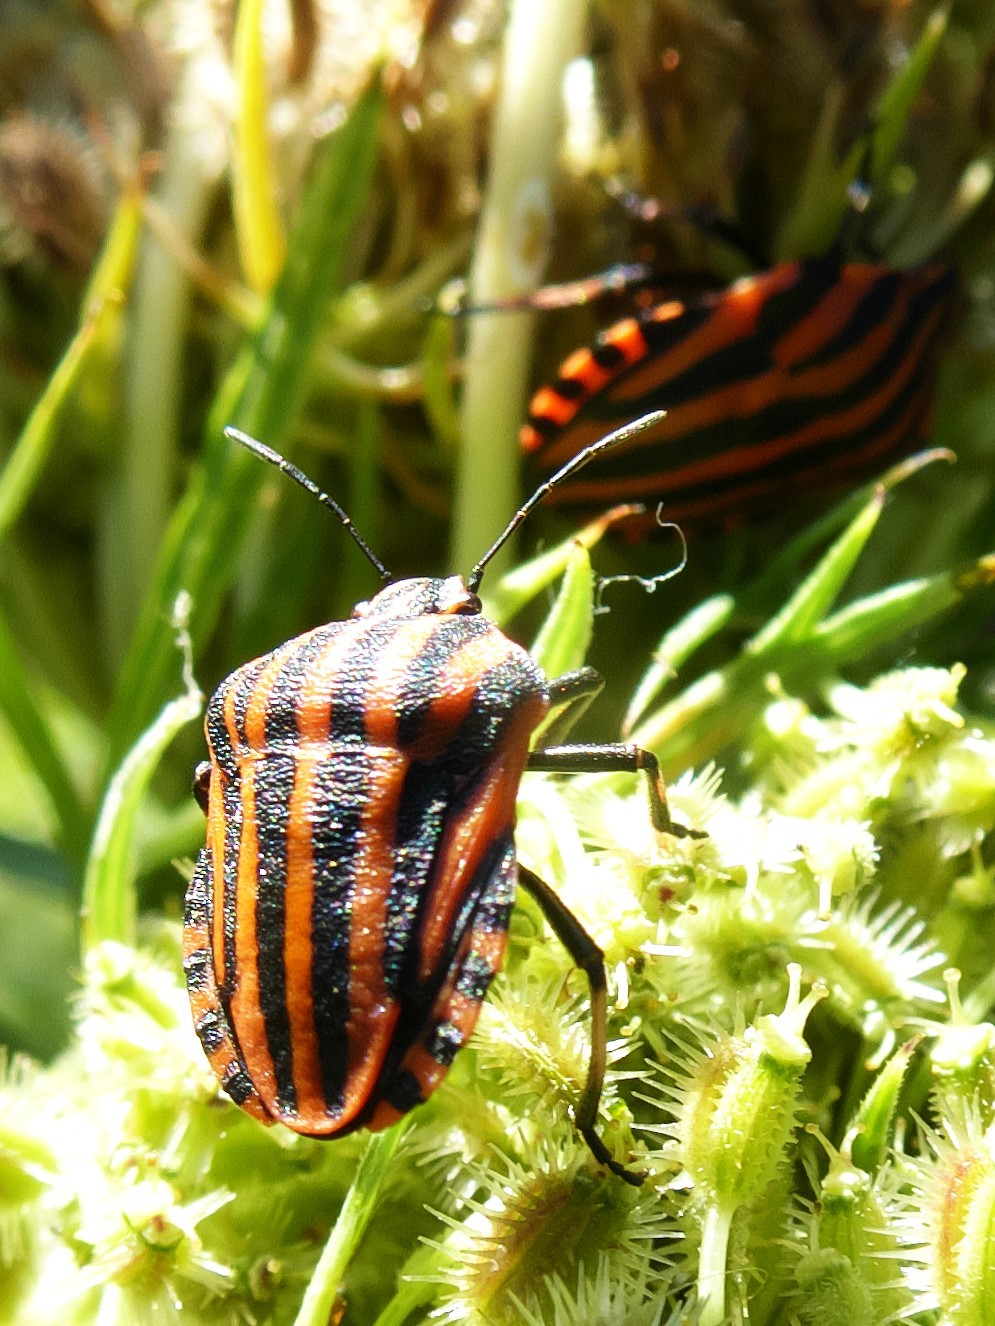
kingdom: Animalia
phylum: Arthropoda
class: Insecta
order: Hemiptera
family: Pentatomidae
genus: Graphosoma
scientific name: Graphosoma italicum
